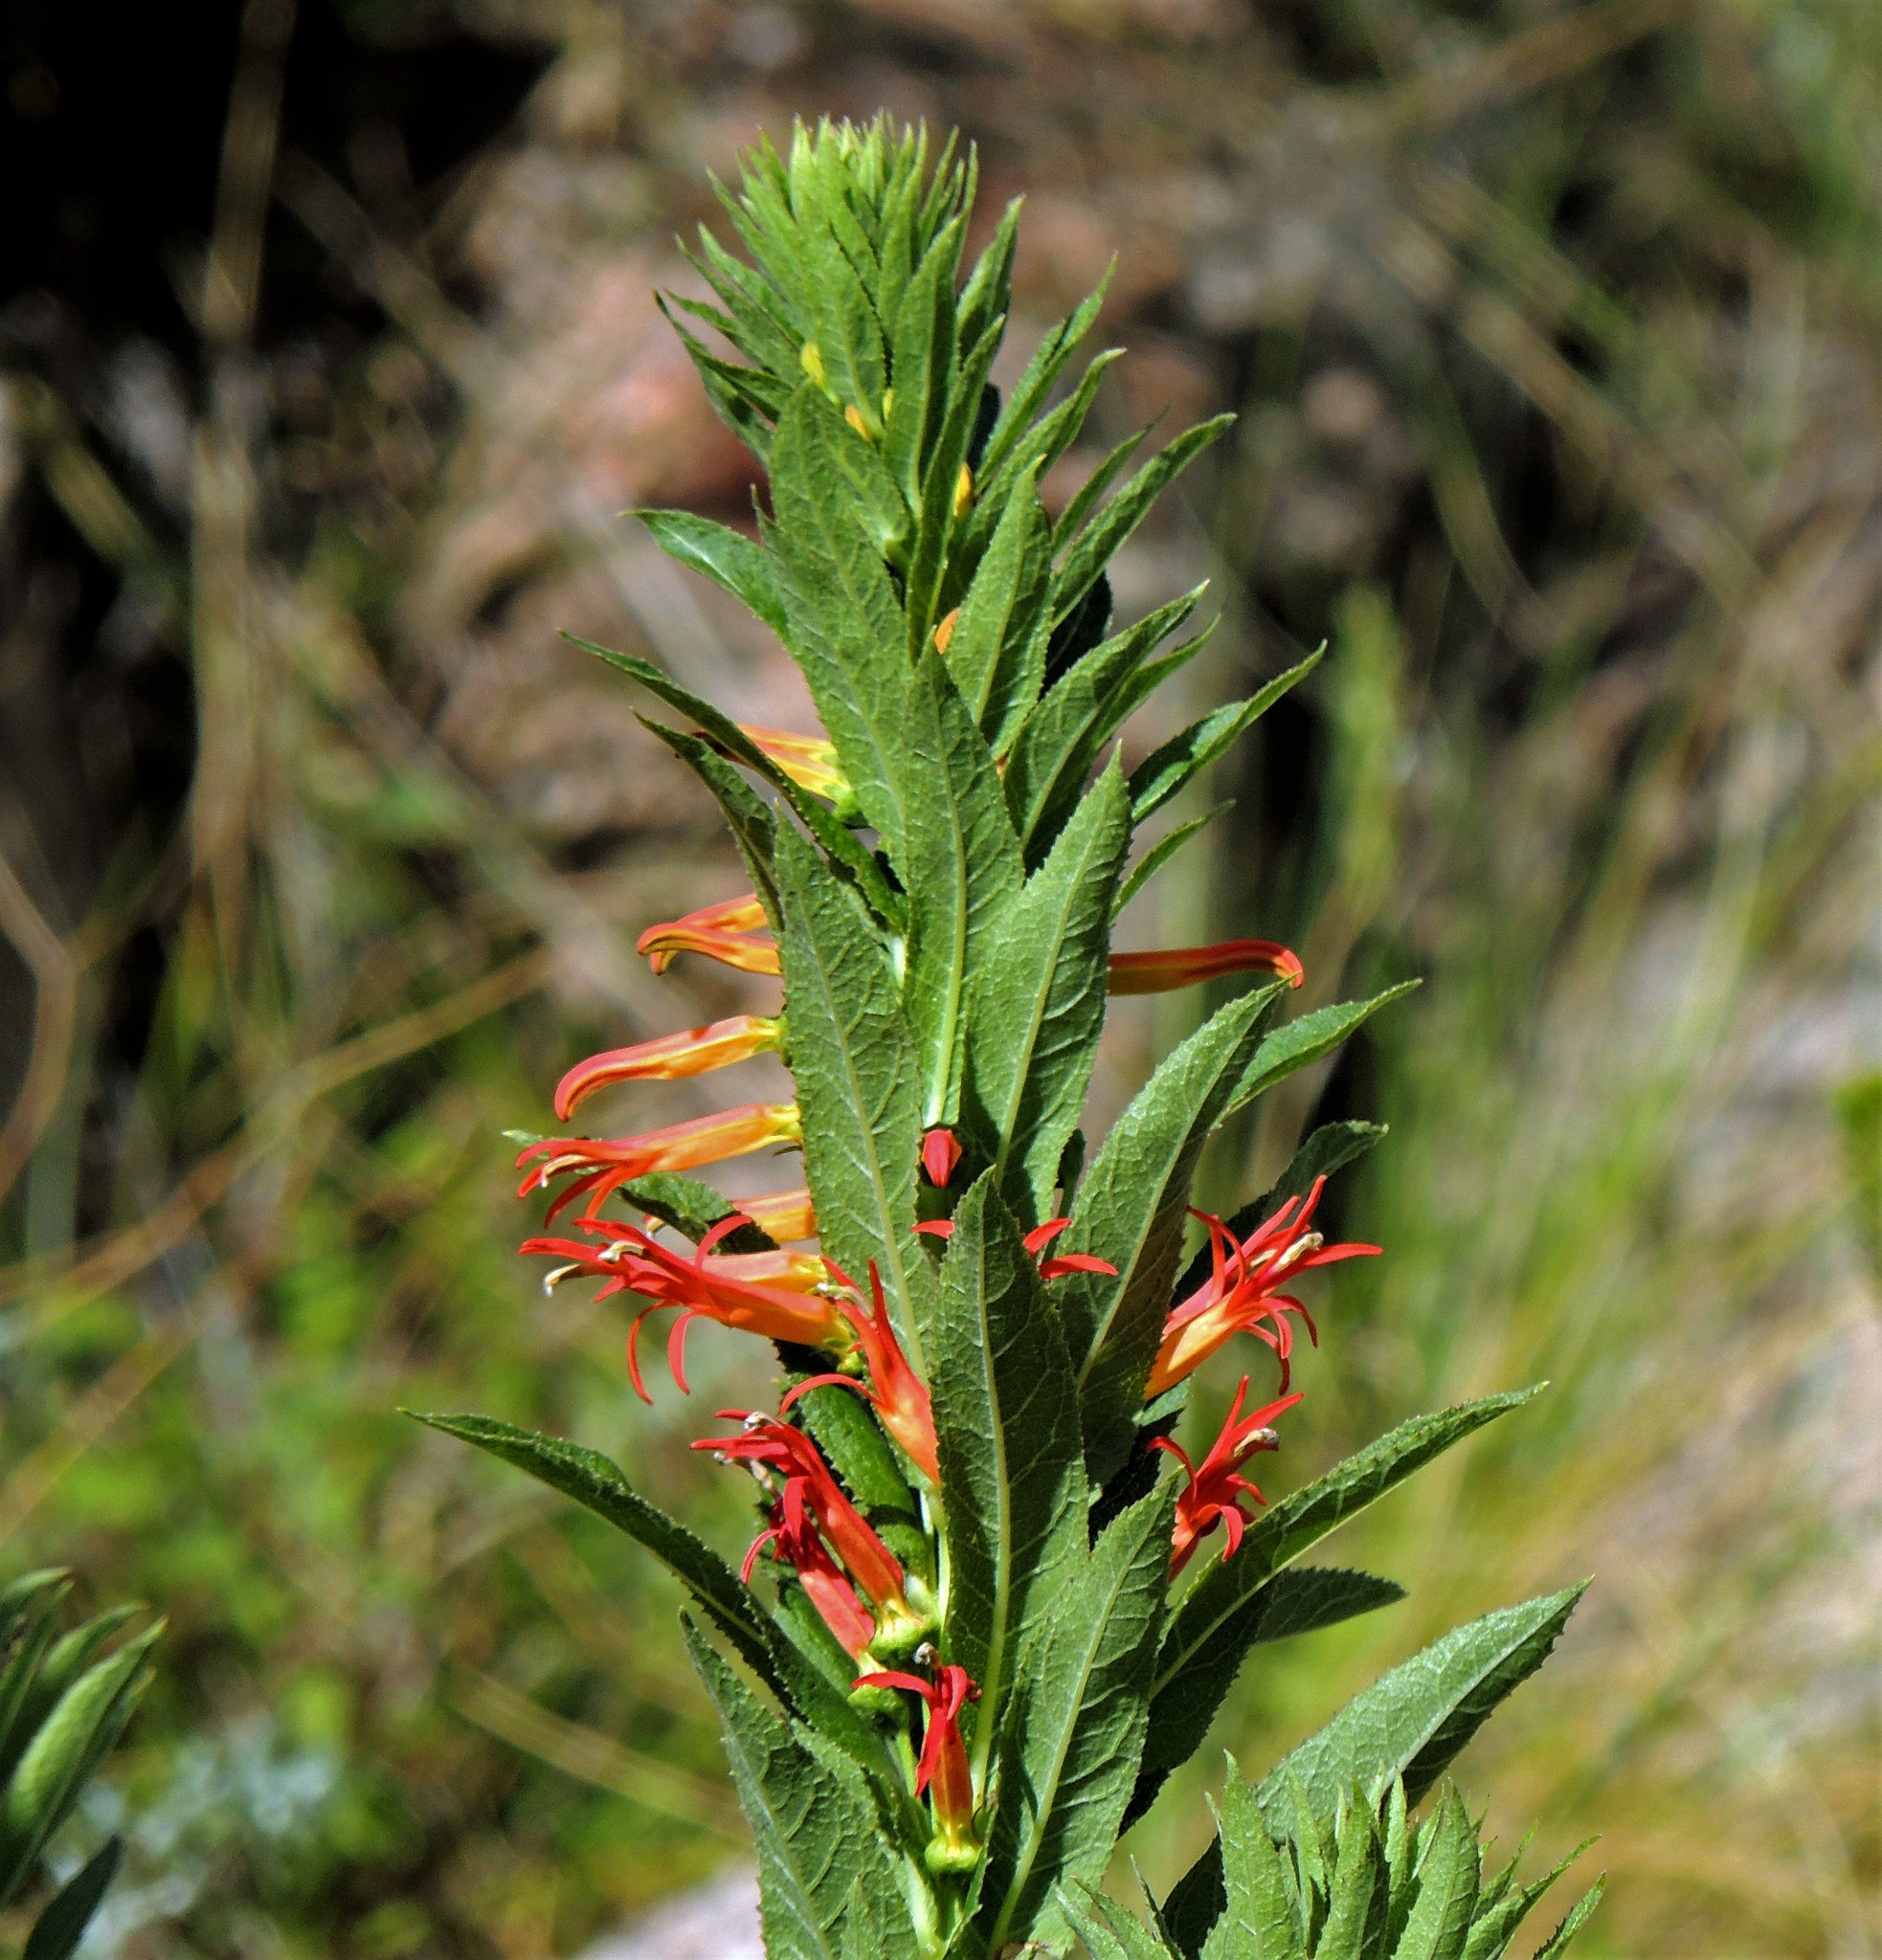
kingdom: Plantae
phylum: Tracheophyta
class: Magnoliopsida
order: Asterales
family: Campanulaceae
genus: Siphocampylus
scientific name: Siphocampylus foliosus
